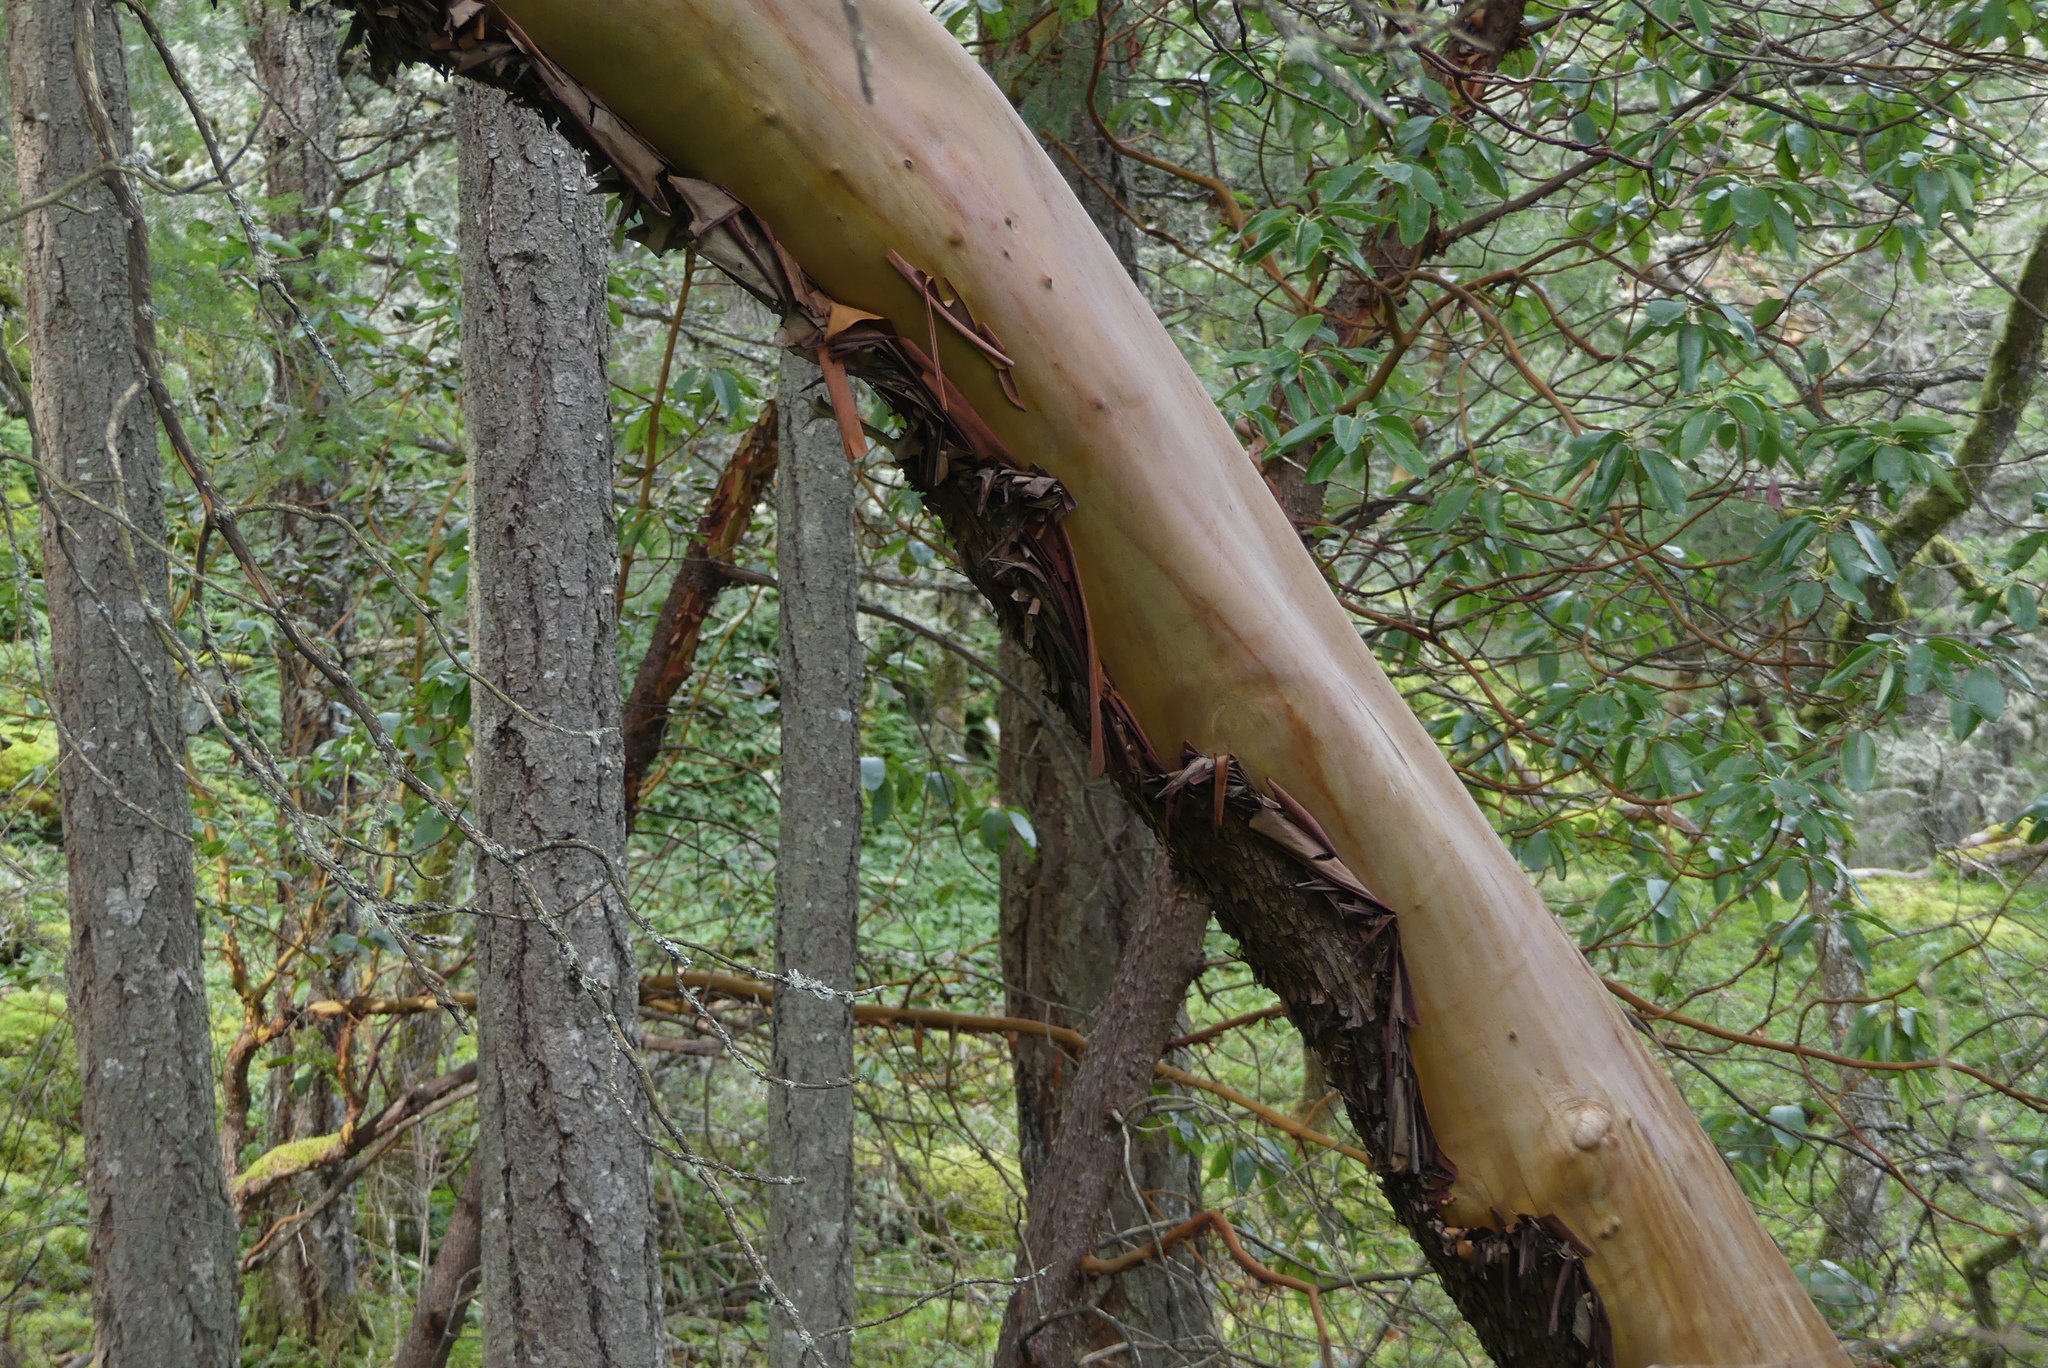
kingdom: Plantae
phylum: Tracheophyta
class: Magnoliopsida
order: Ericales
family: Ericaceae
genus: Arbutus
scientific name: Arbutus menziesii
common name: Pacific madrone
